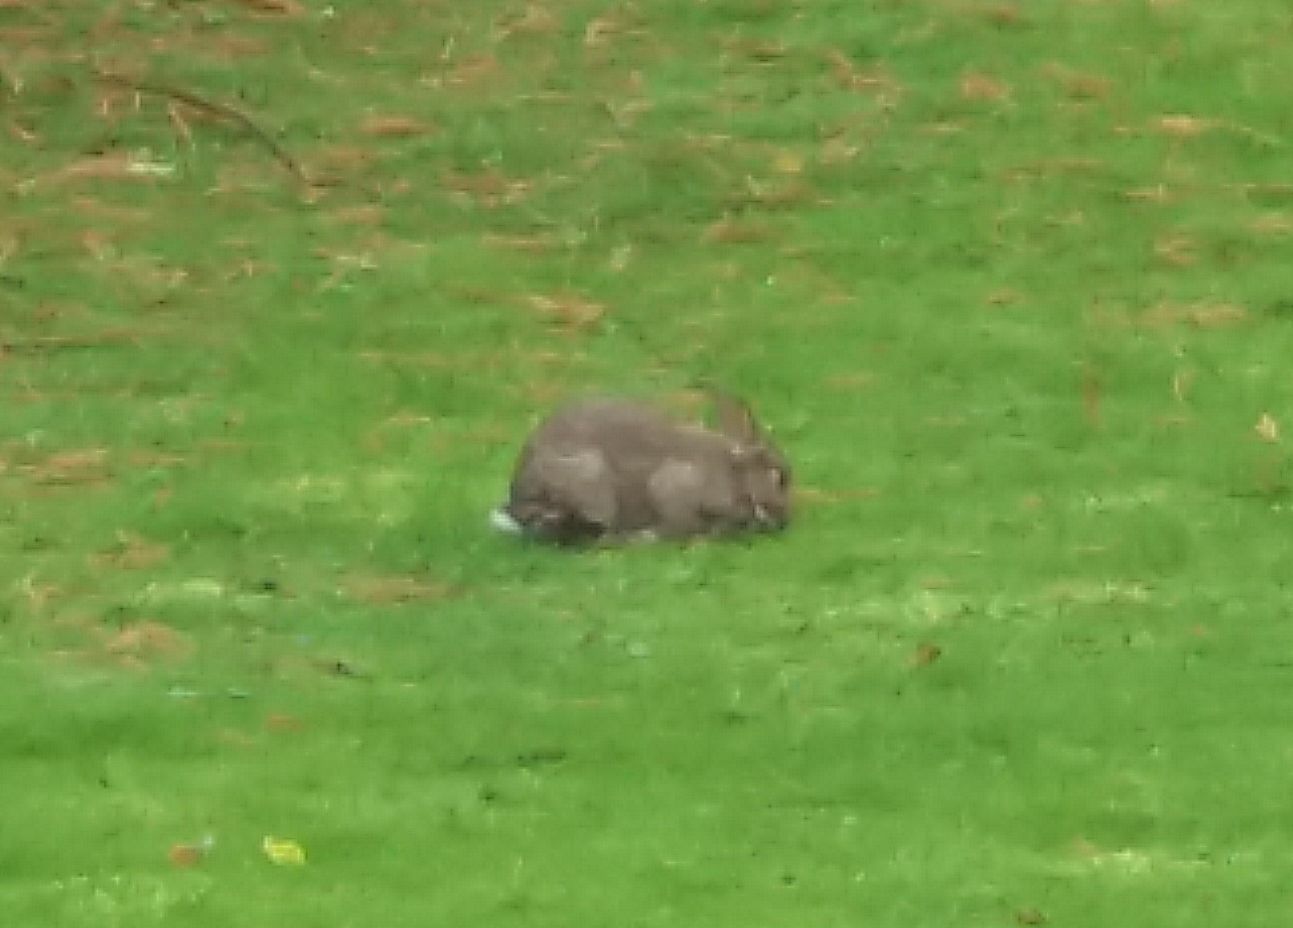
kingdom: Animalia
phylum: Chordata
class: Mammalia
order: Lagomorpha
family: Leporidae
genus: Oryctolagus
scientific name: Oryctolagus cuniculus
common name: European rabbit
